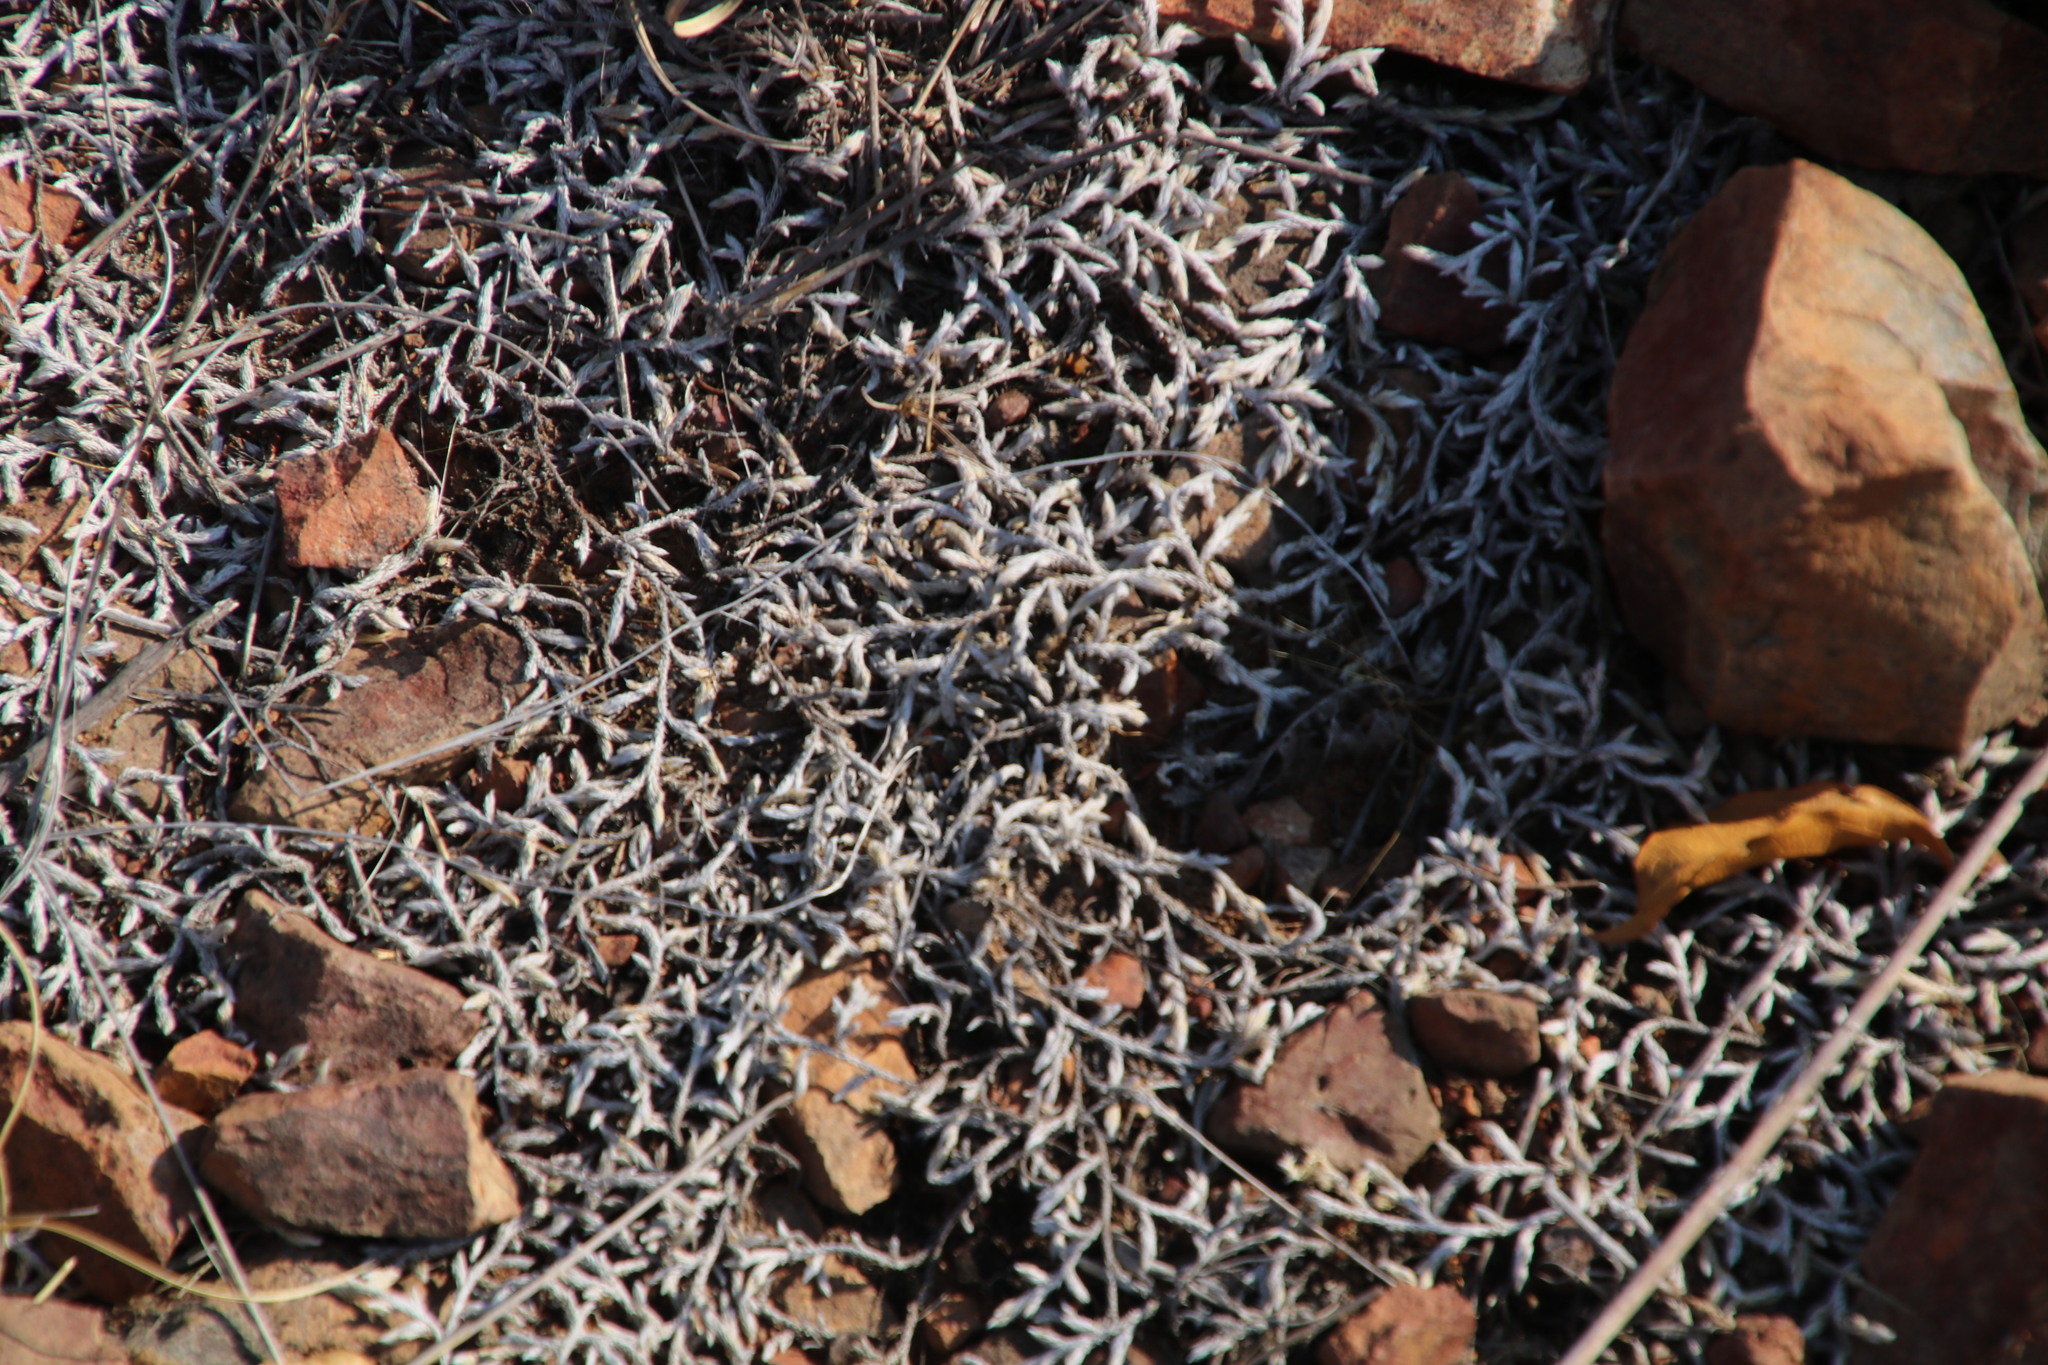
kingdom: Plantae
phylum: Tracheophyta
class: Lycopodiopsida
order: Selaginellales
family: Selaginellaceae
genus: Selaginella
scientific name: Selaginella dregei
